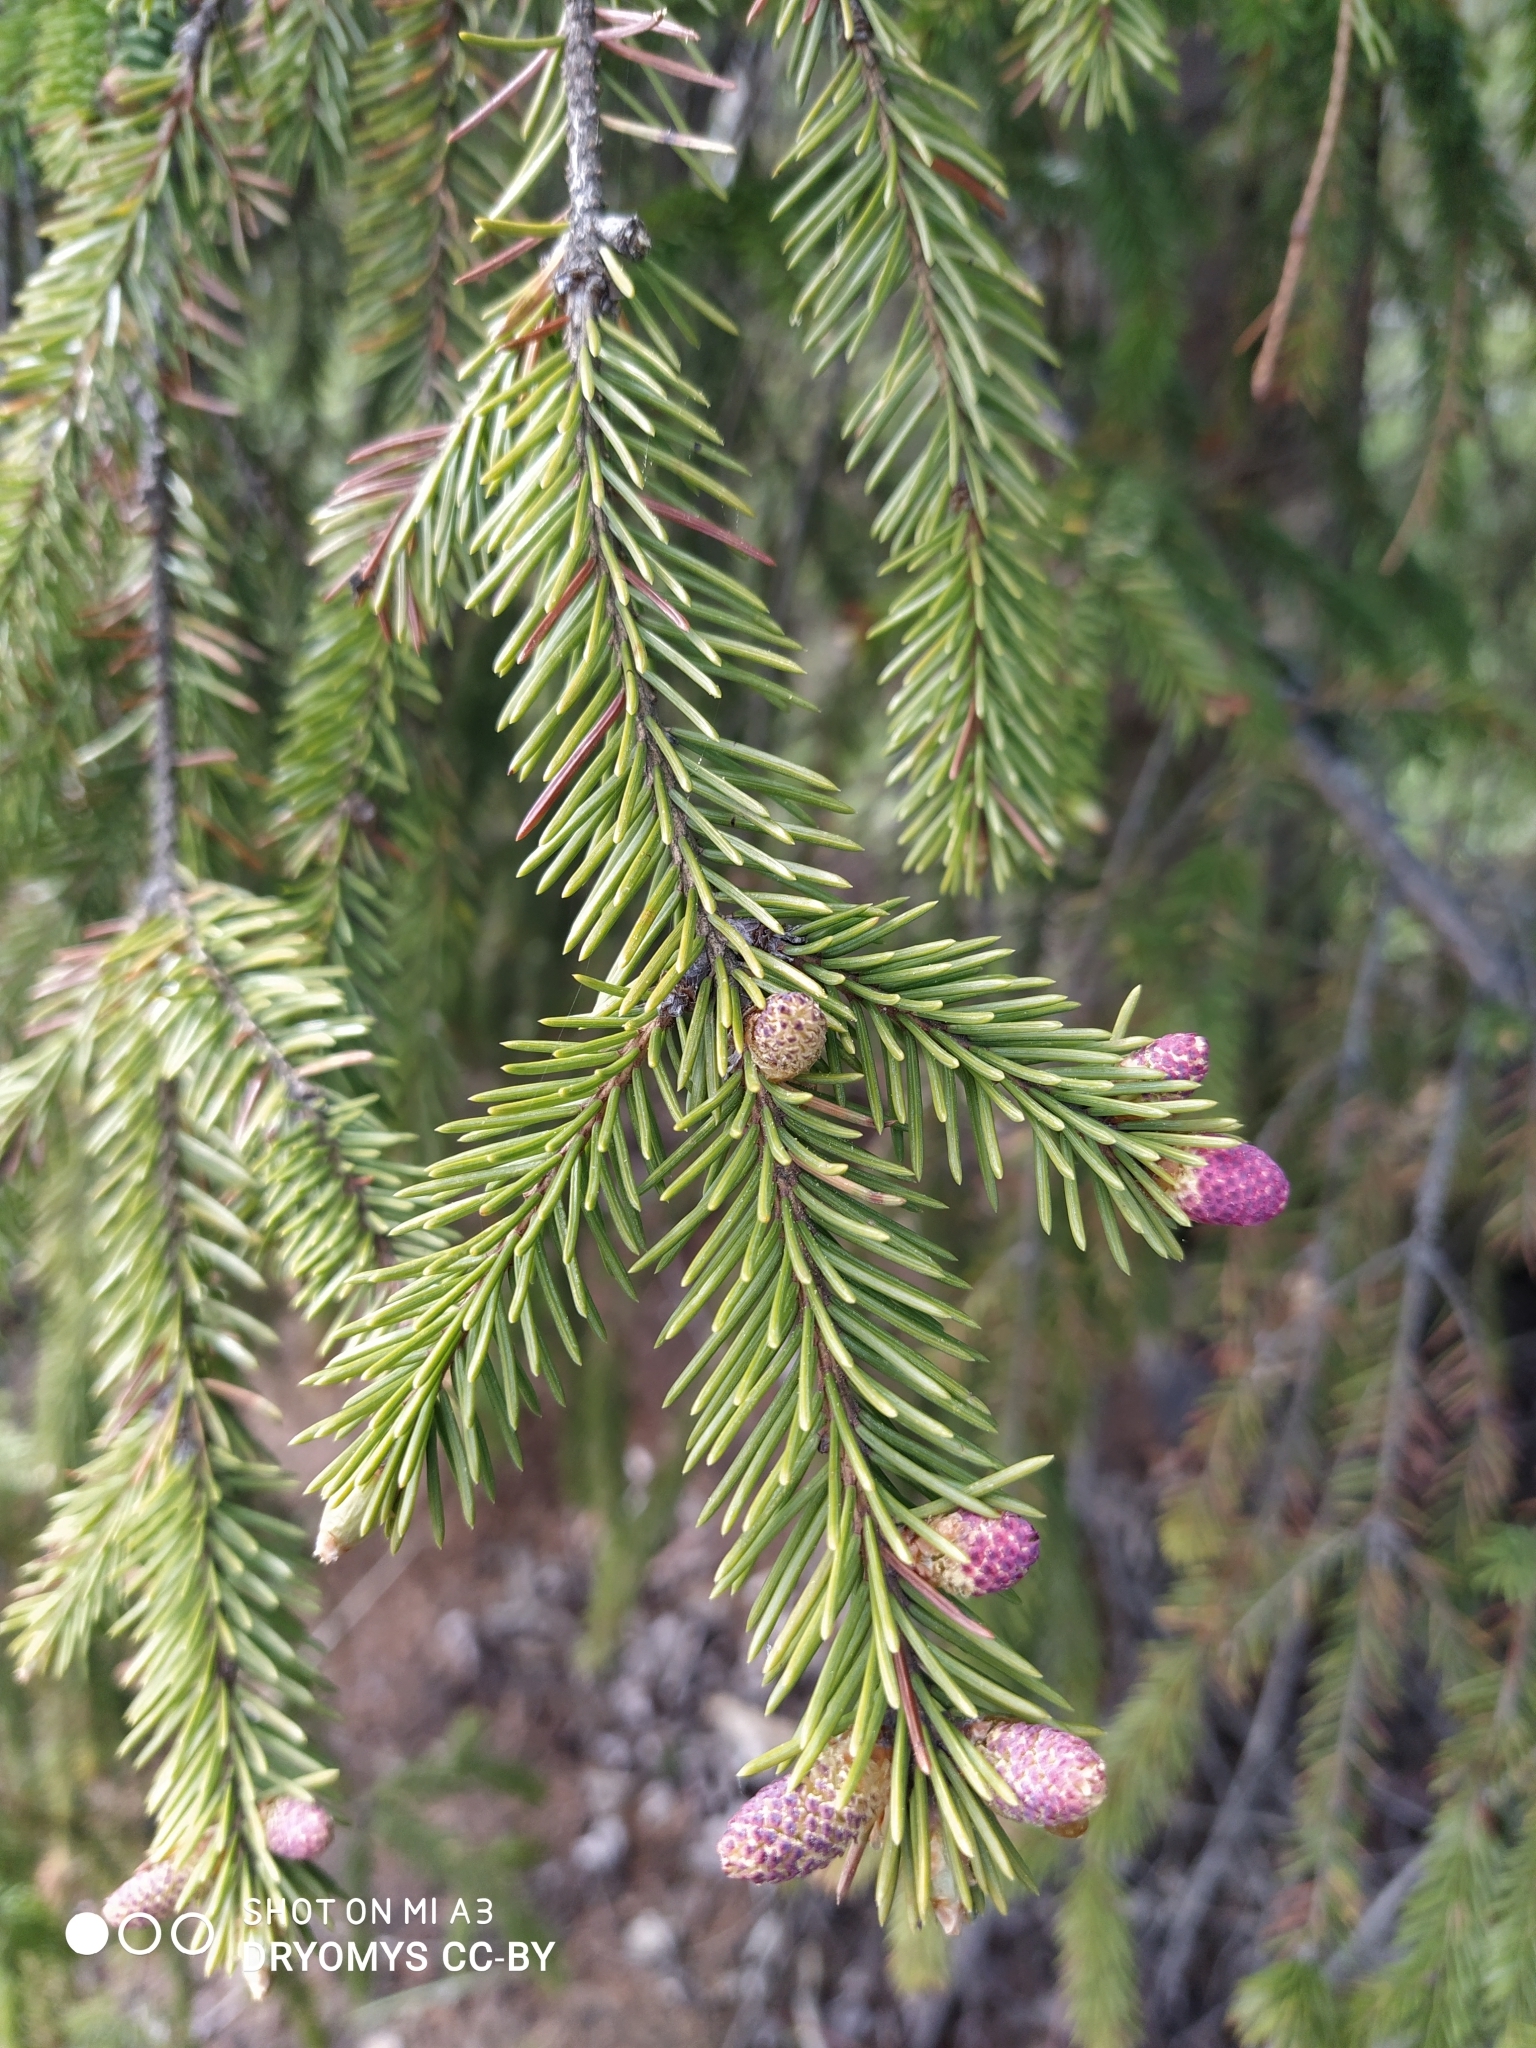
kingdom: Plantae
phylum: Tracheophyta
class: Pinopsida
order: Pinales
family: Pinaceae
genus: Picea
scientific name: Picea abies
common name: Norway spruce
